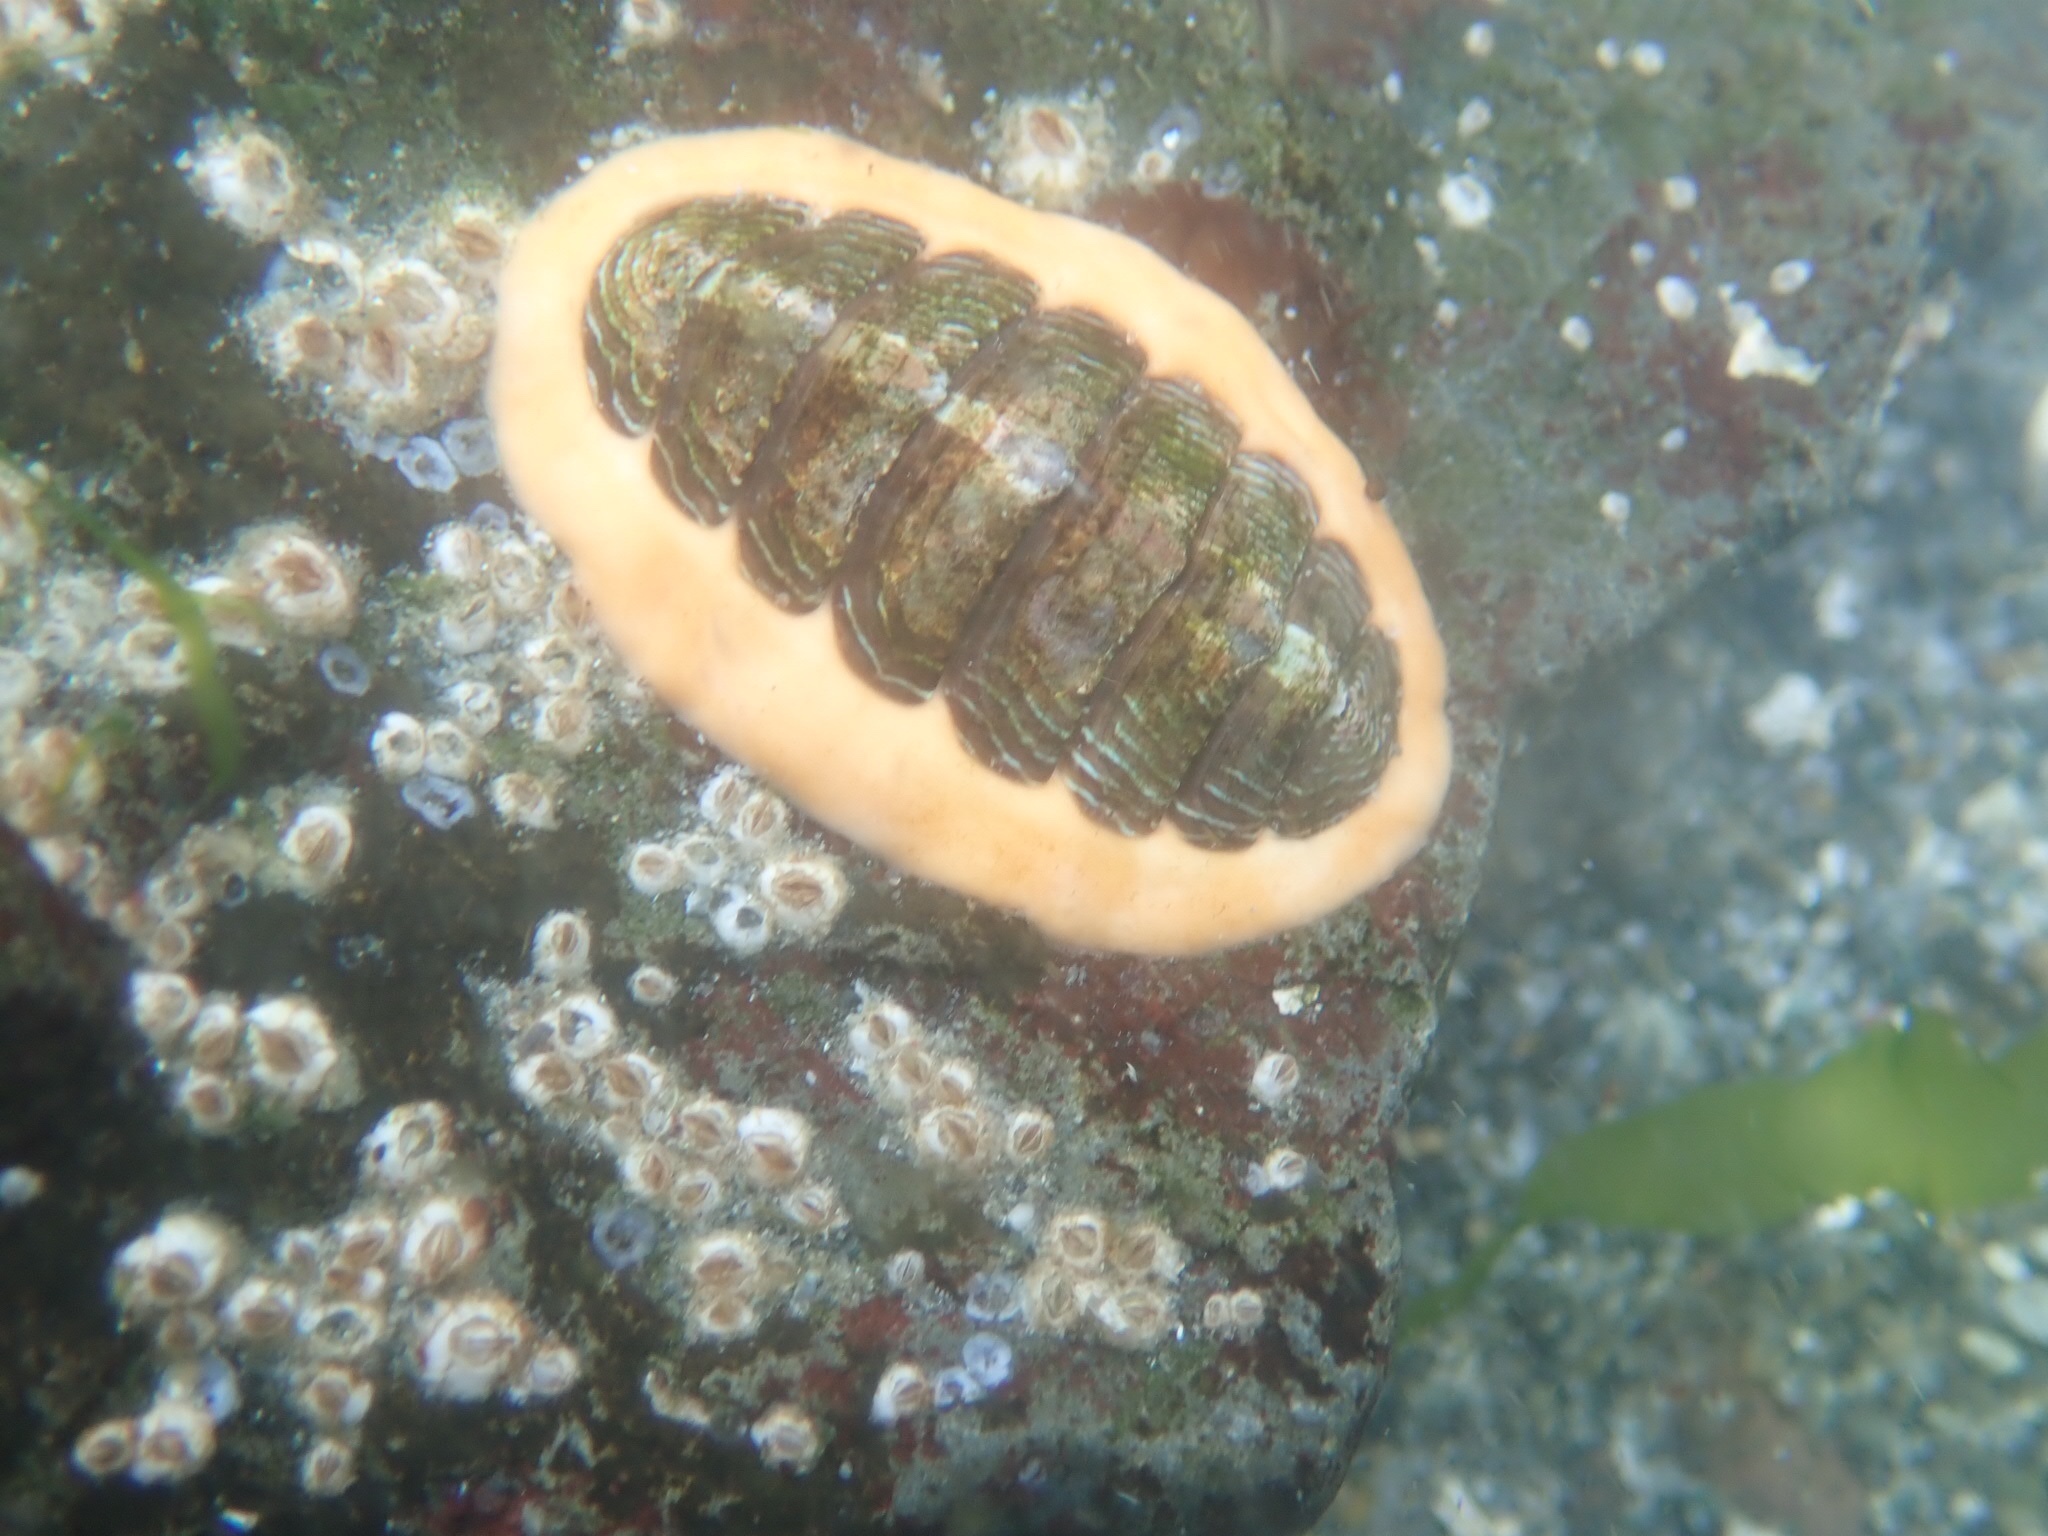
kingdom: Animalia
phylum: Mollusca
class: Polyplacophora
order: Chitonida
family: Tonicellidae
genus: Tonicella
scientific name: Tonicella lineata
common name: Lined chiton
